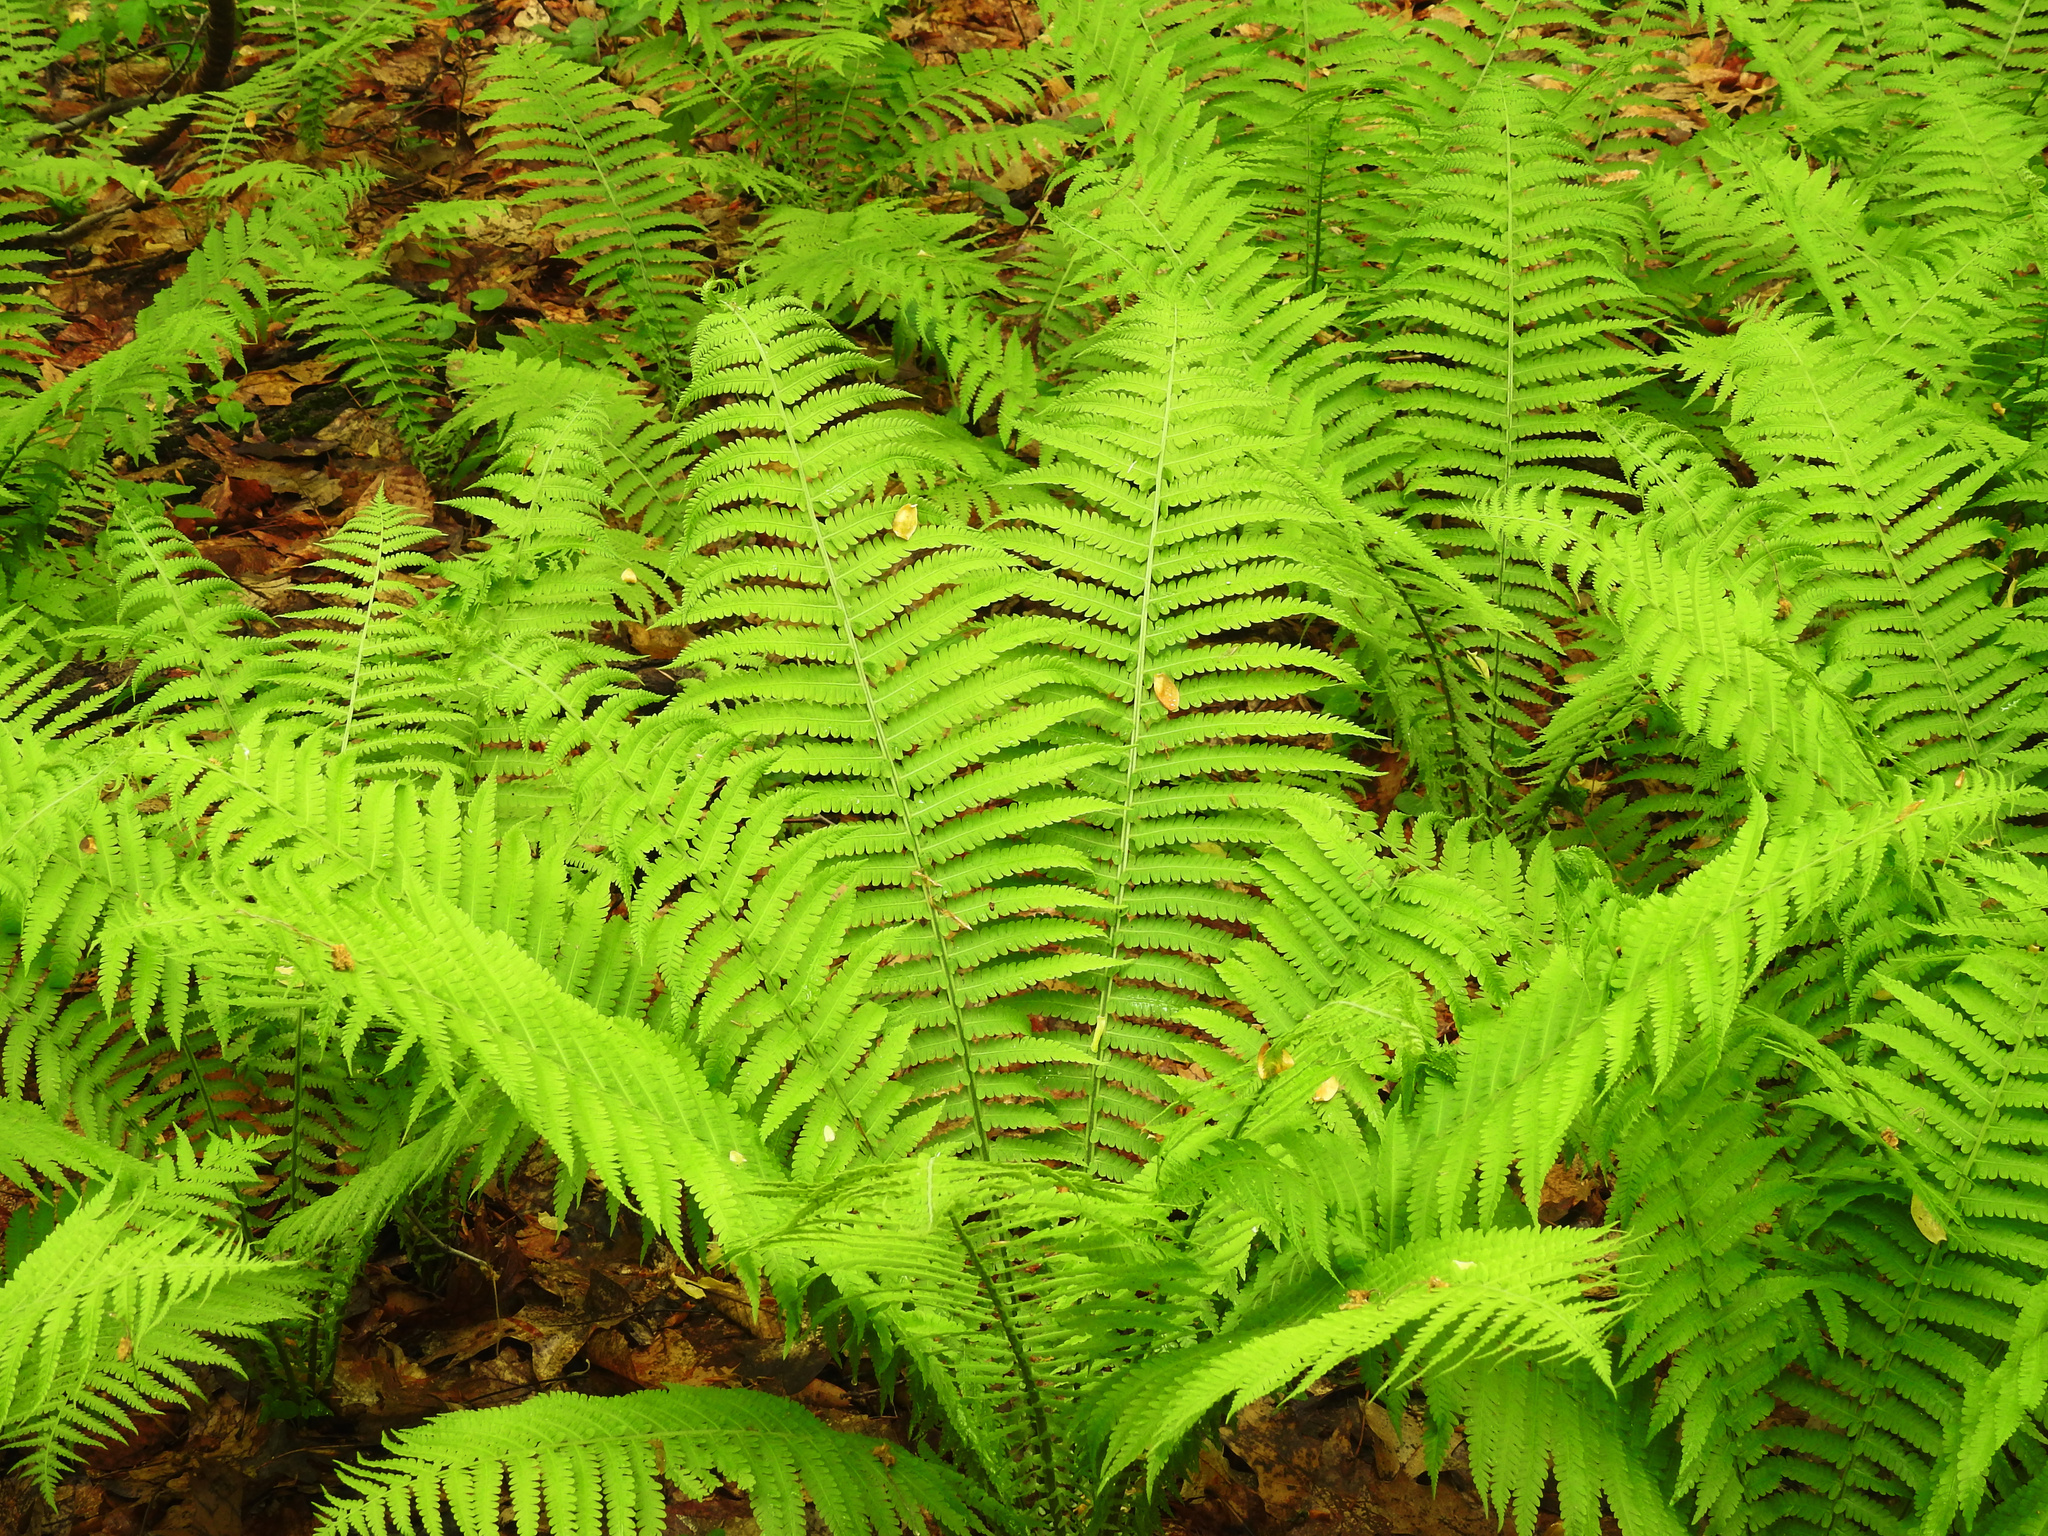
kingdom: Plantae
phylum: Tracheophyta
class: Polypodiopsida
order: Polypodiales
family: Onocleaceae
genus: Matteuccia
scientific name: Matteuccia struthiopteris
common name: Ostrich fern
